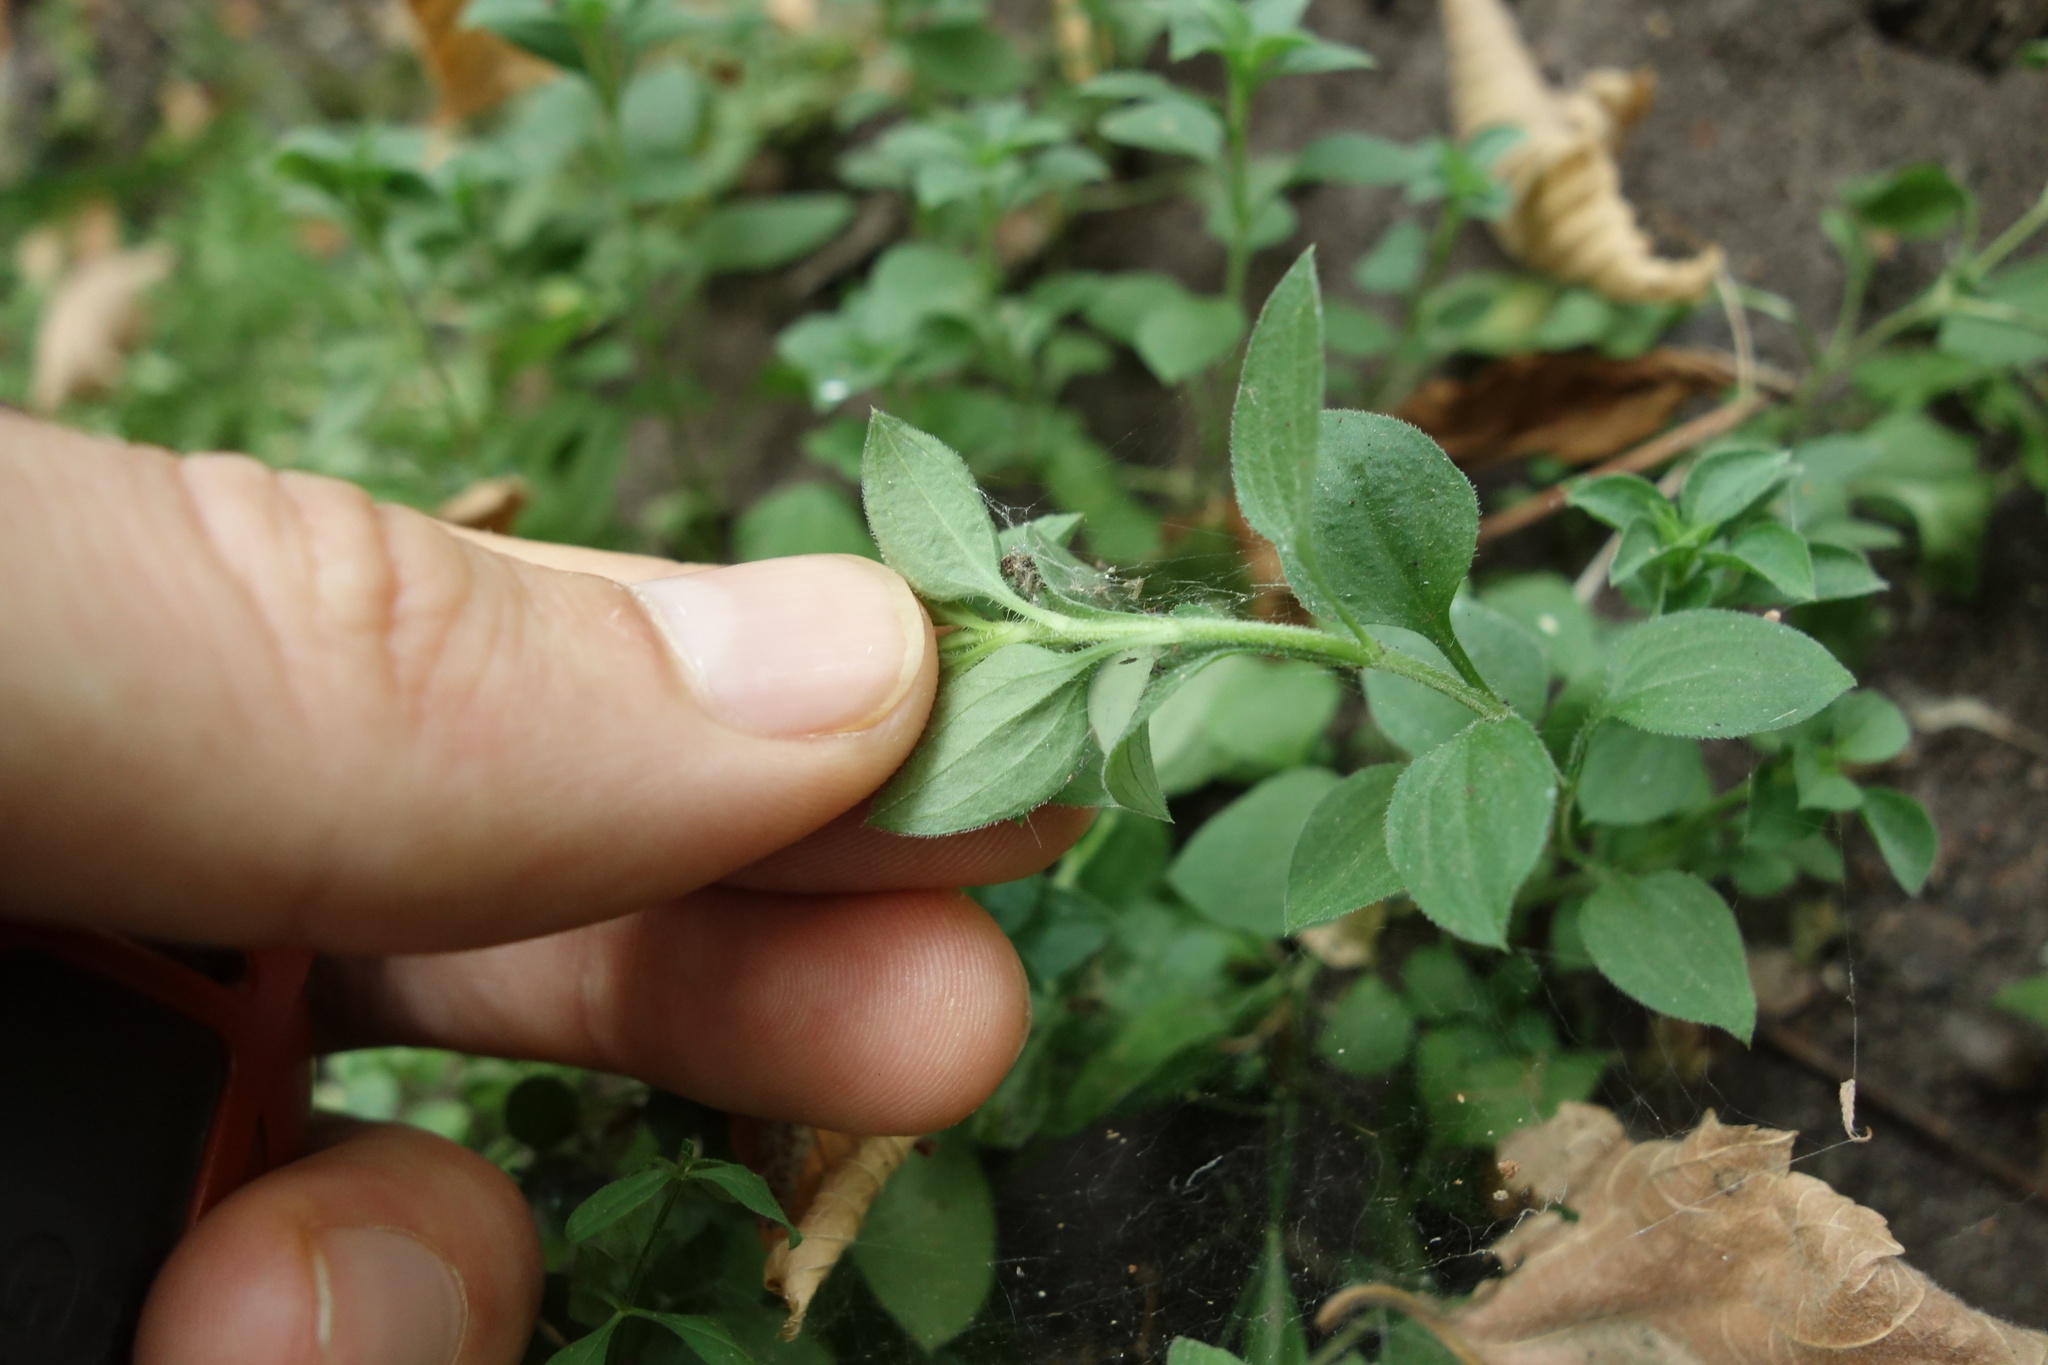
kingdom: Plantae
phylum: Tracheophyta
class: Magnoliopsida
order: Caryophyllales
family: Caryophyllaceae
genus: Moehringia
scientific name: Moehringia trinervia
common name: Three-nerved sandwort
